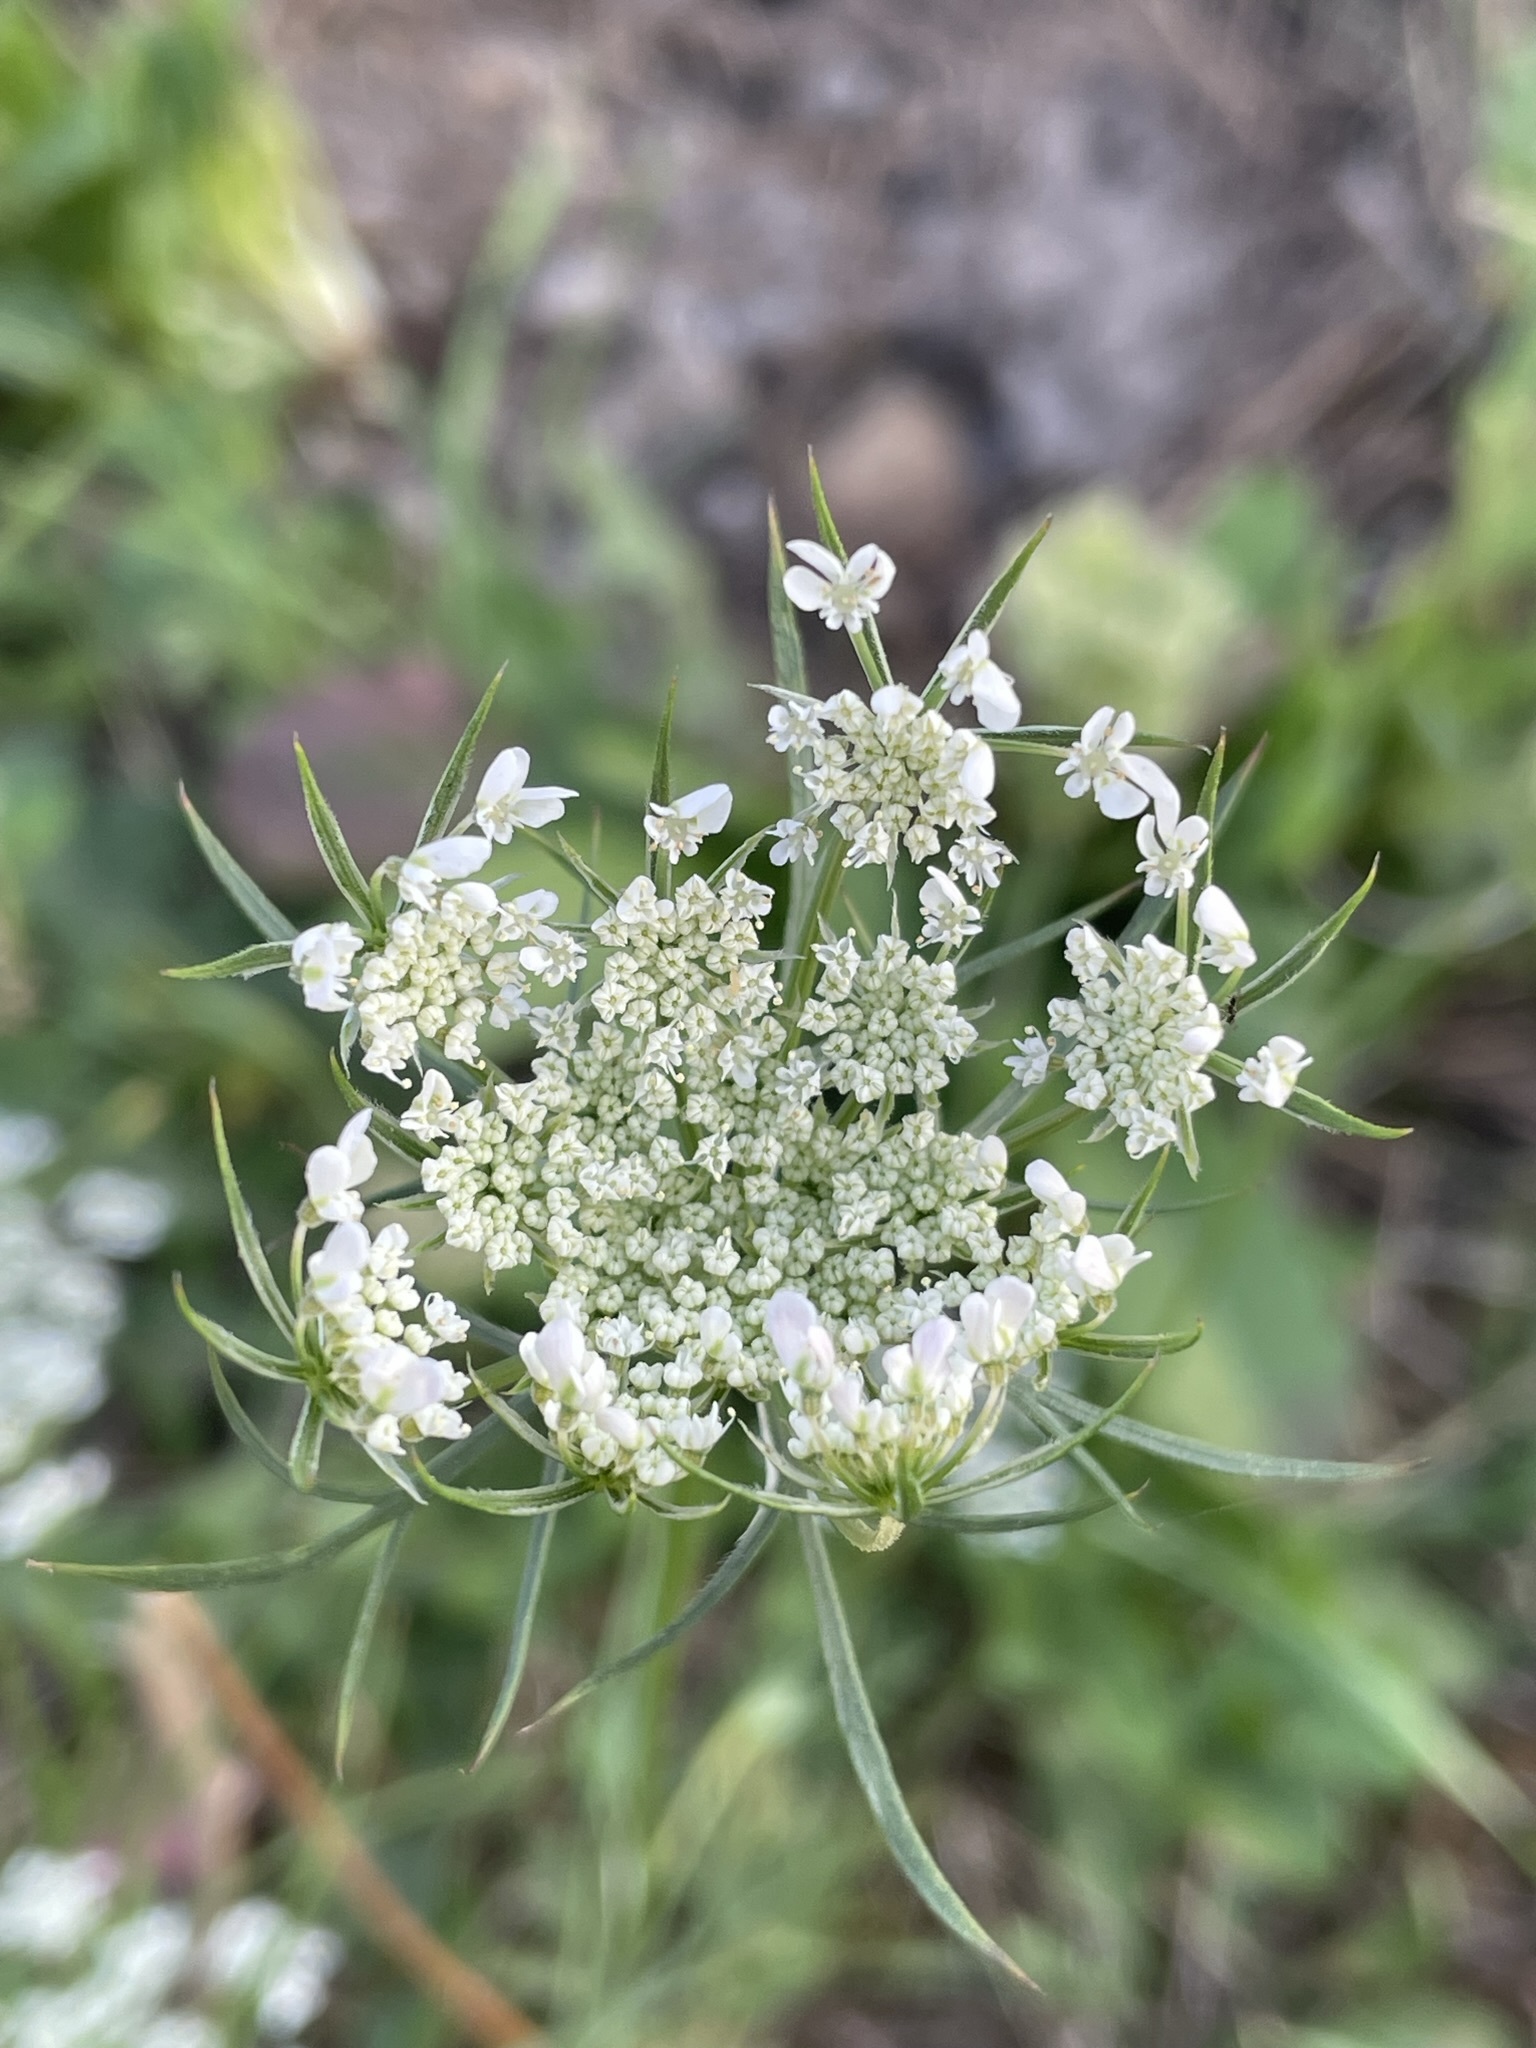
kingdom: Plantae
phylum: Tracheophyta
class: Magnoliopsida
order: Apiales
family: Apiaceae
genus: Daucus
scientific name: Daucus carota
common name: Wild carrot
